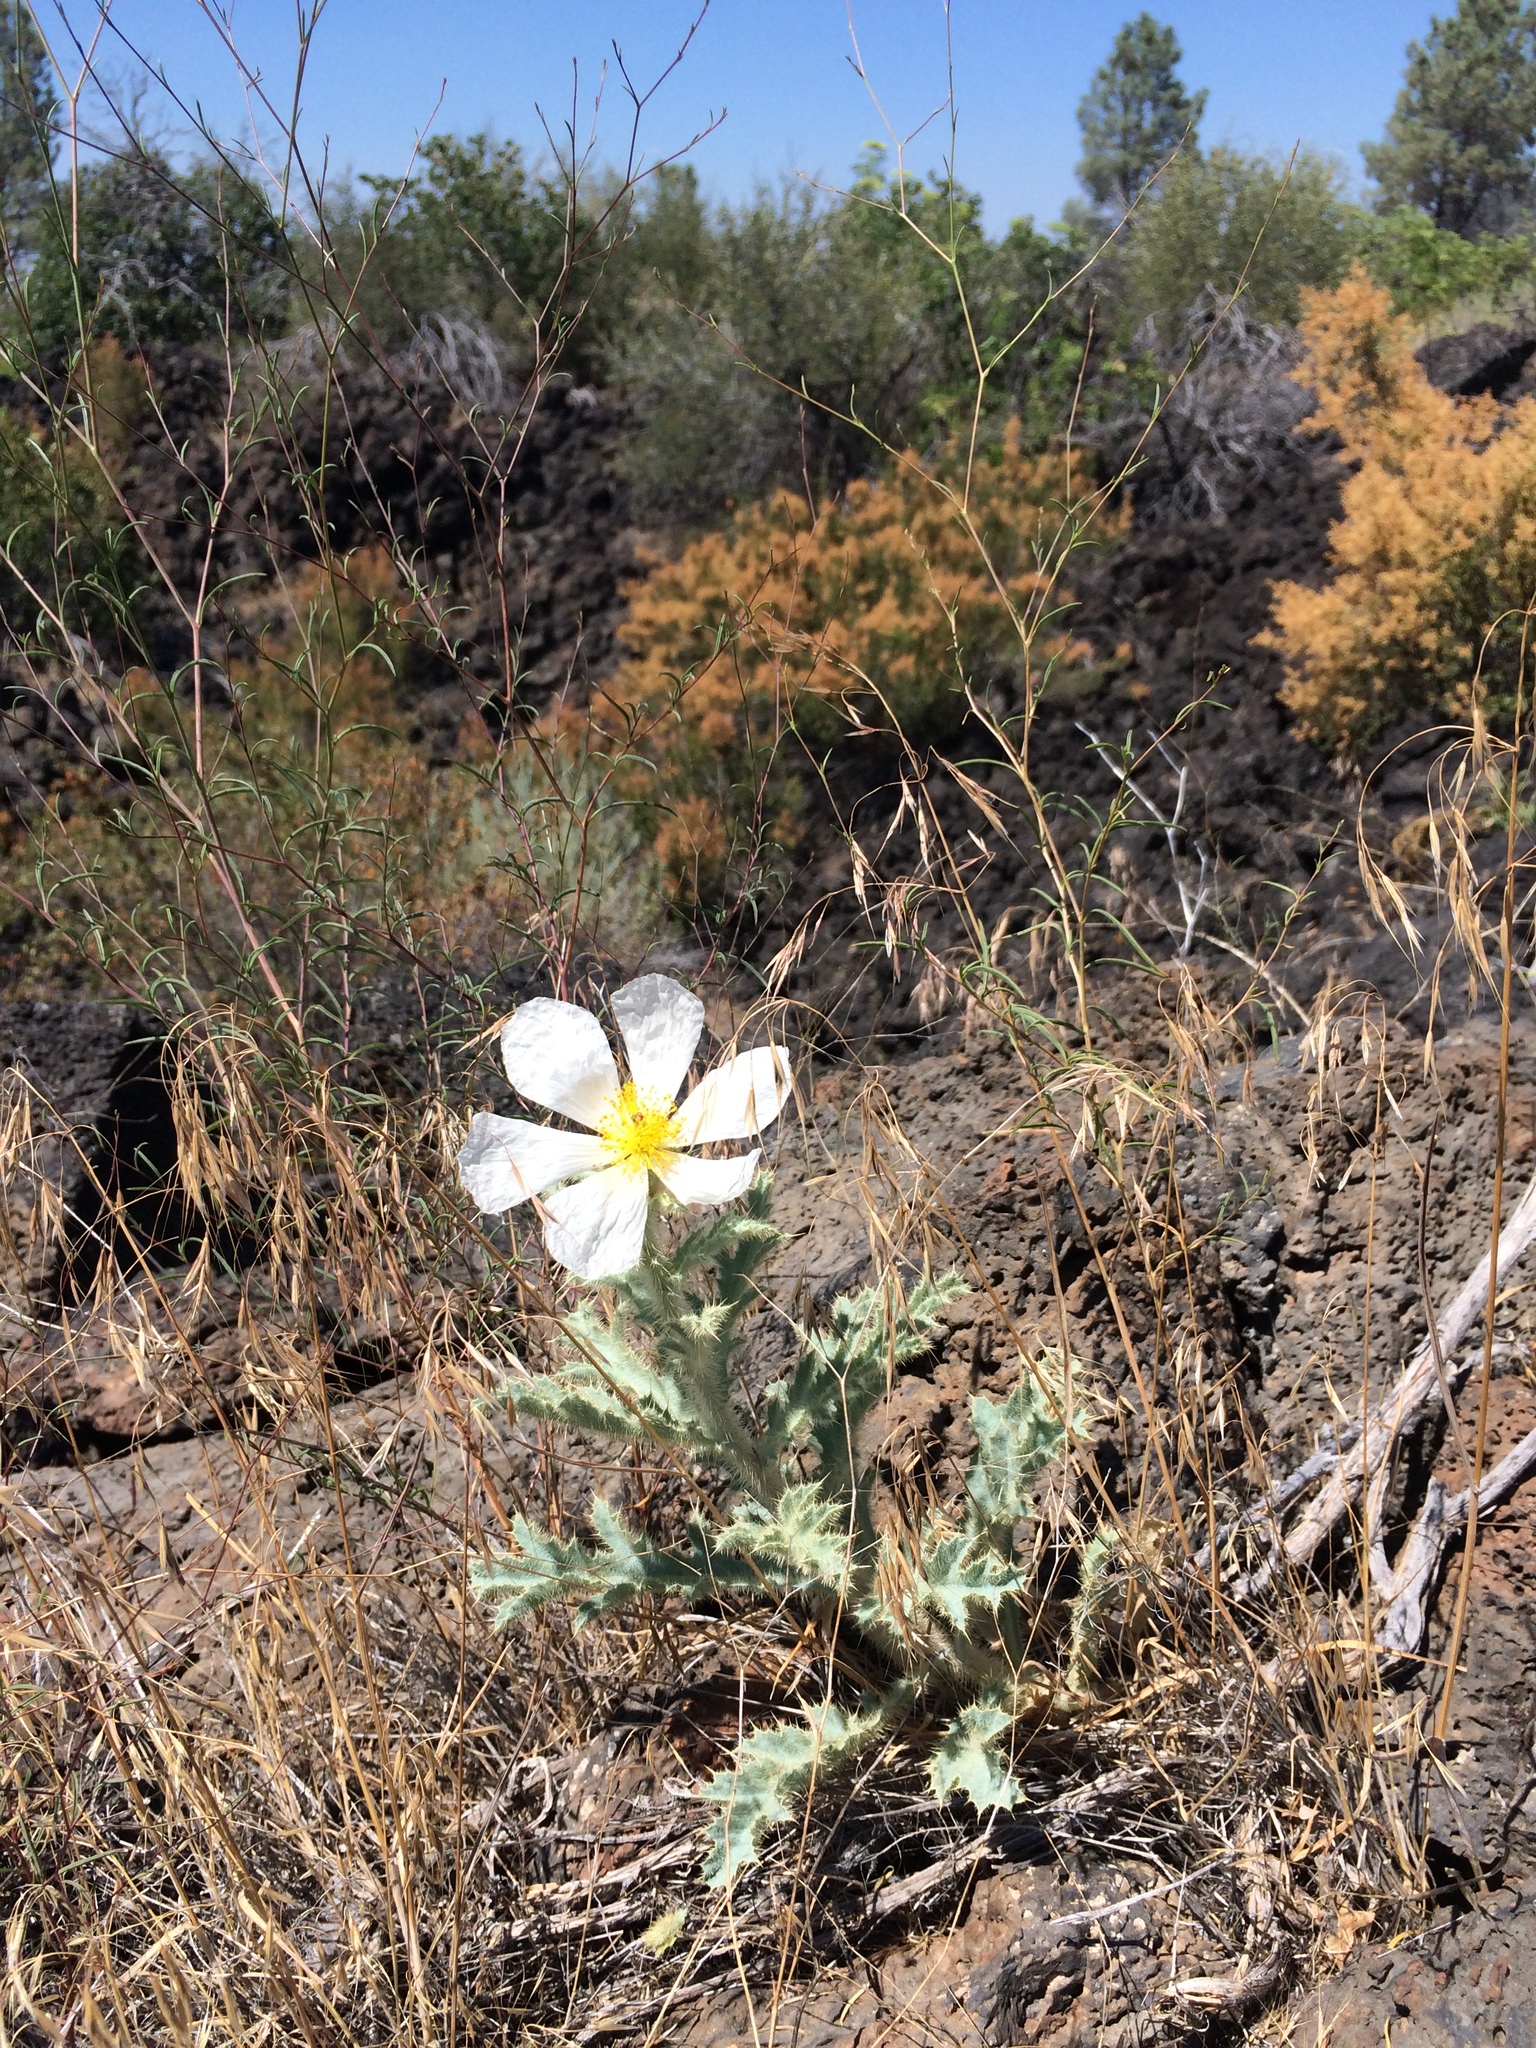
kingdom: Plantae
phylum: Tracheophyta
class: Magnoliopsida
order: Ranunculales
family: Papaveraceae
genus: Argemone
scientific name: Argemone munita
